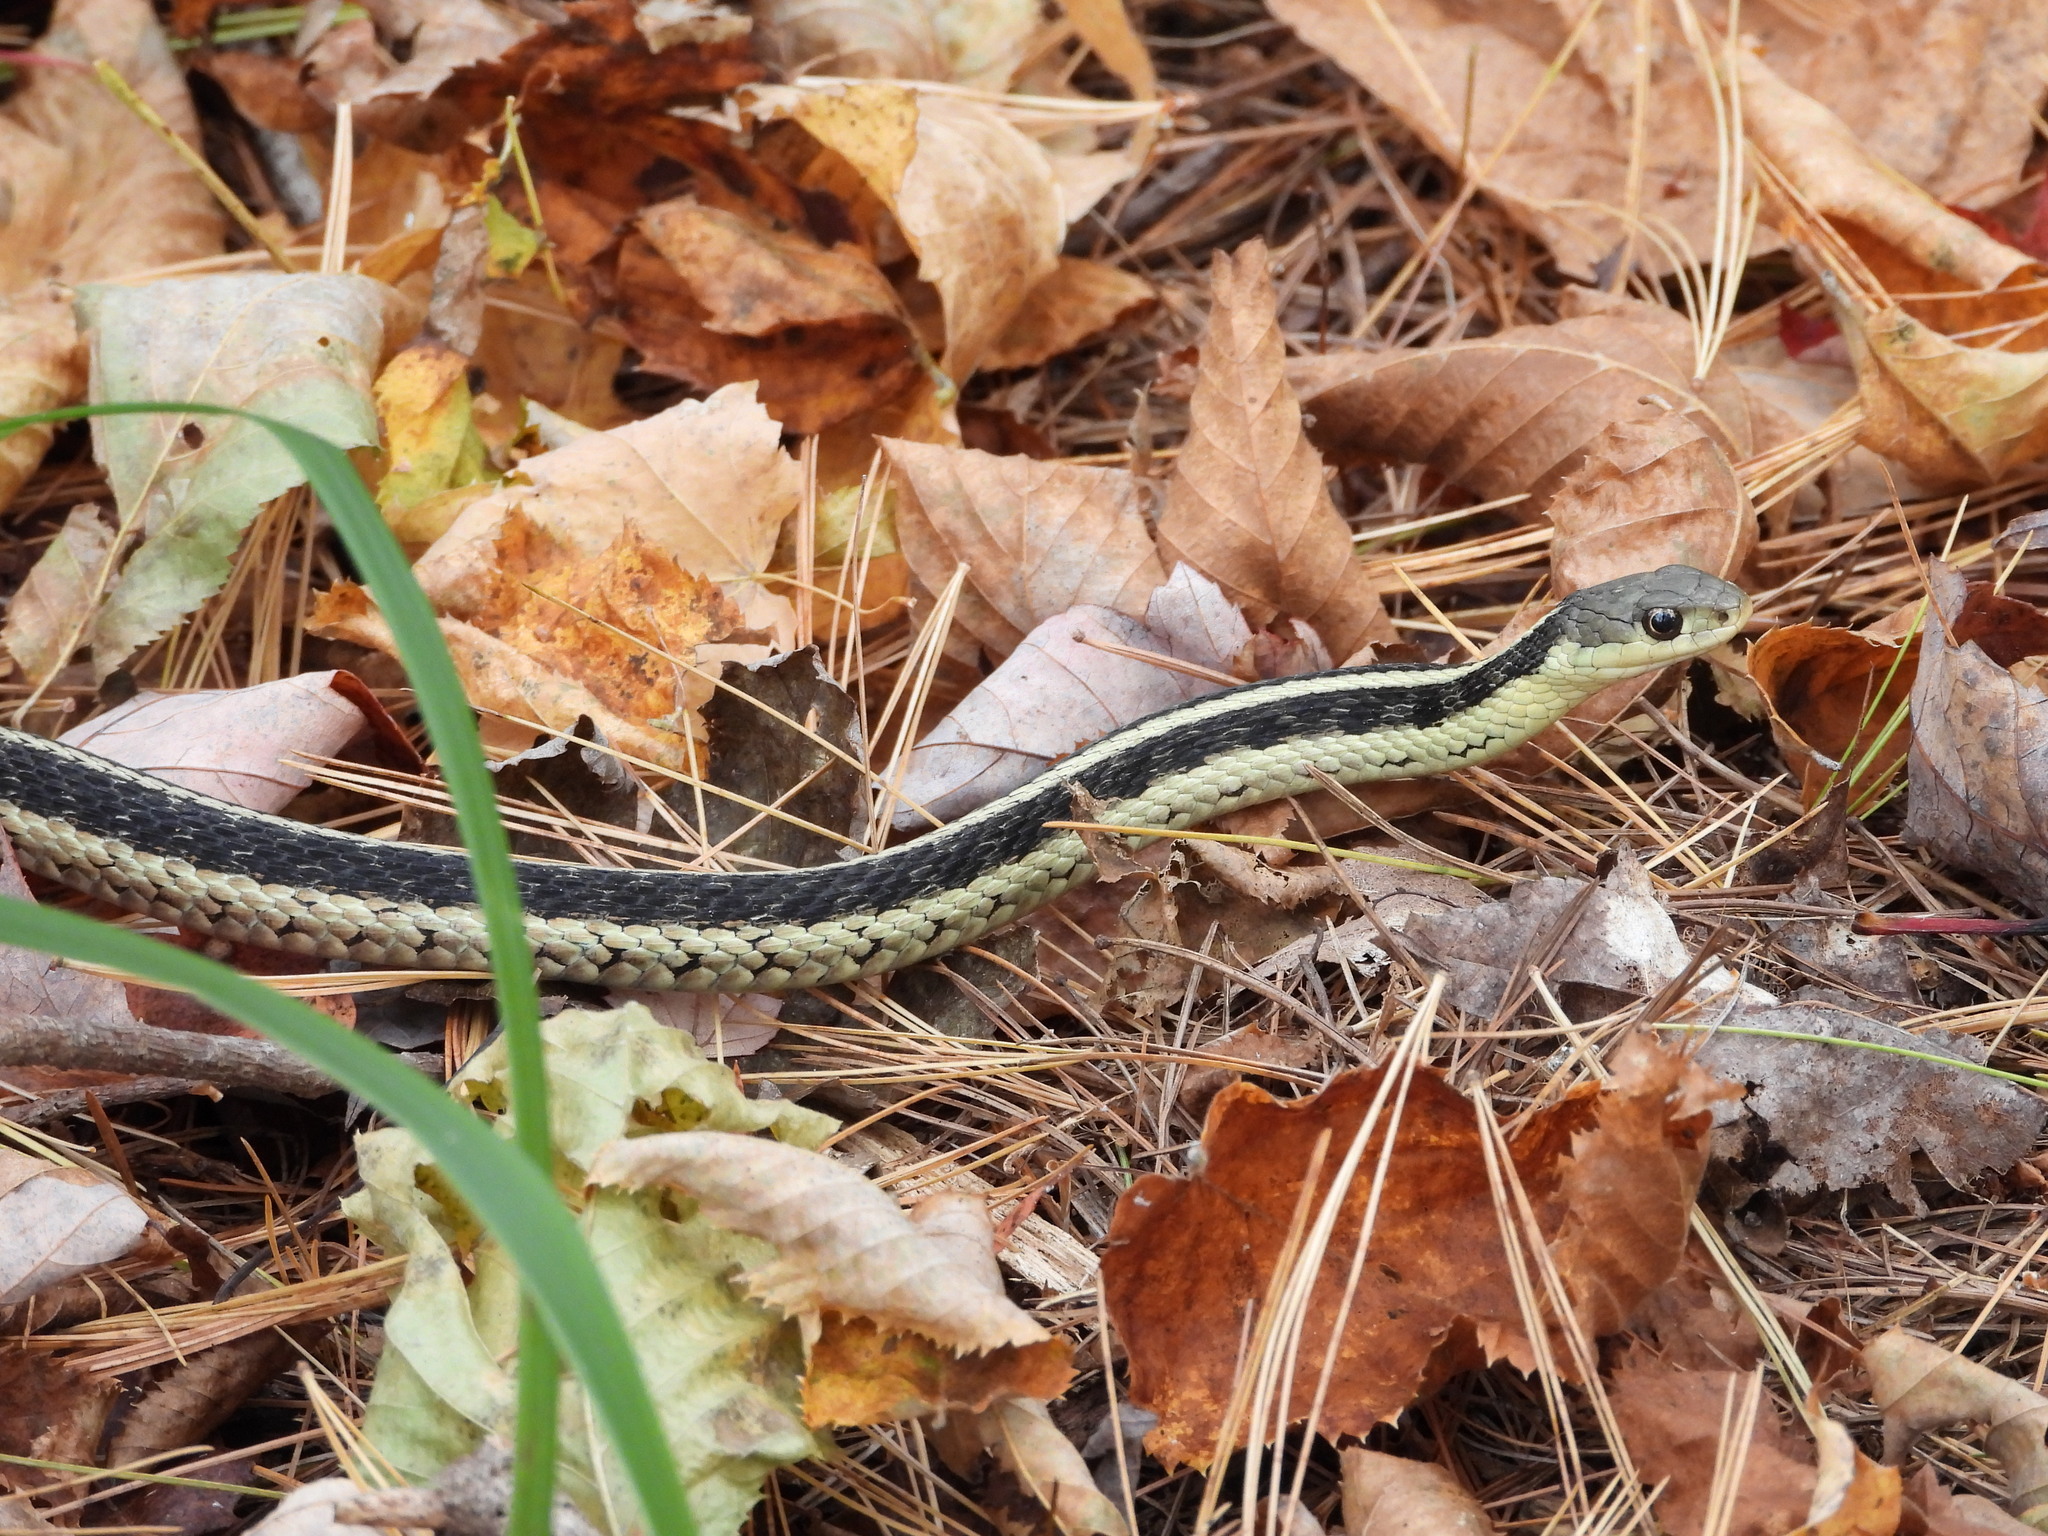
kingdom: Animalia
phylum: Chordata
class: Squamata
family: Colubridae
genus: Thamnophis
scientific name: Thamnophis sirtalis
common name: Common garter snake
